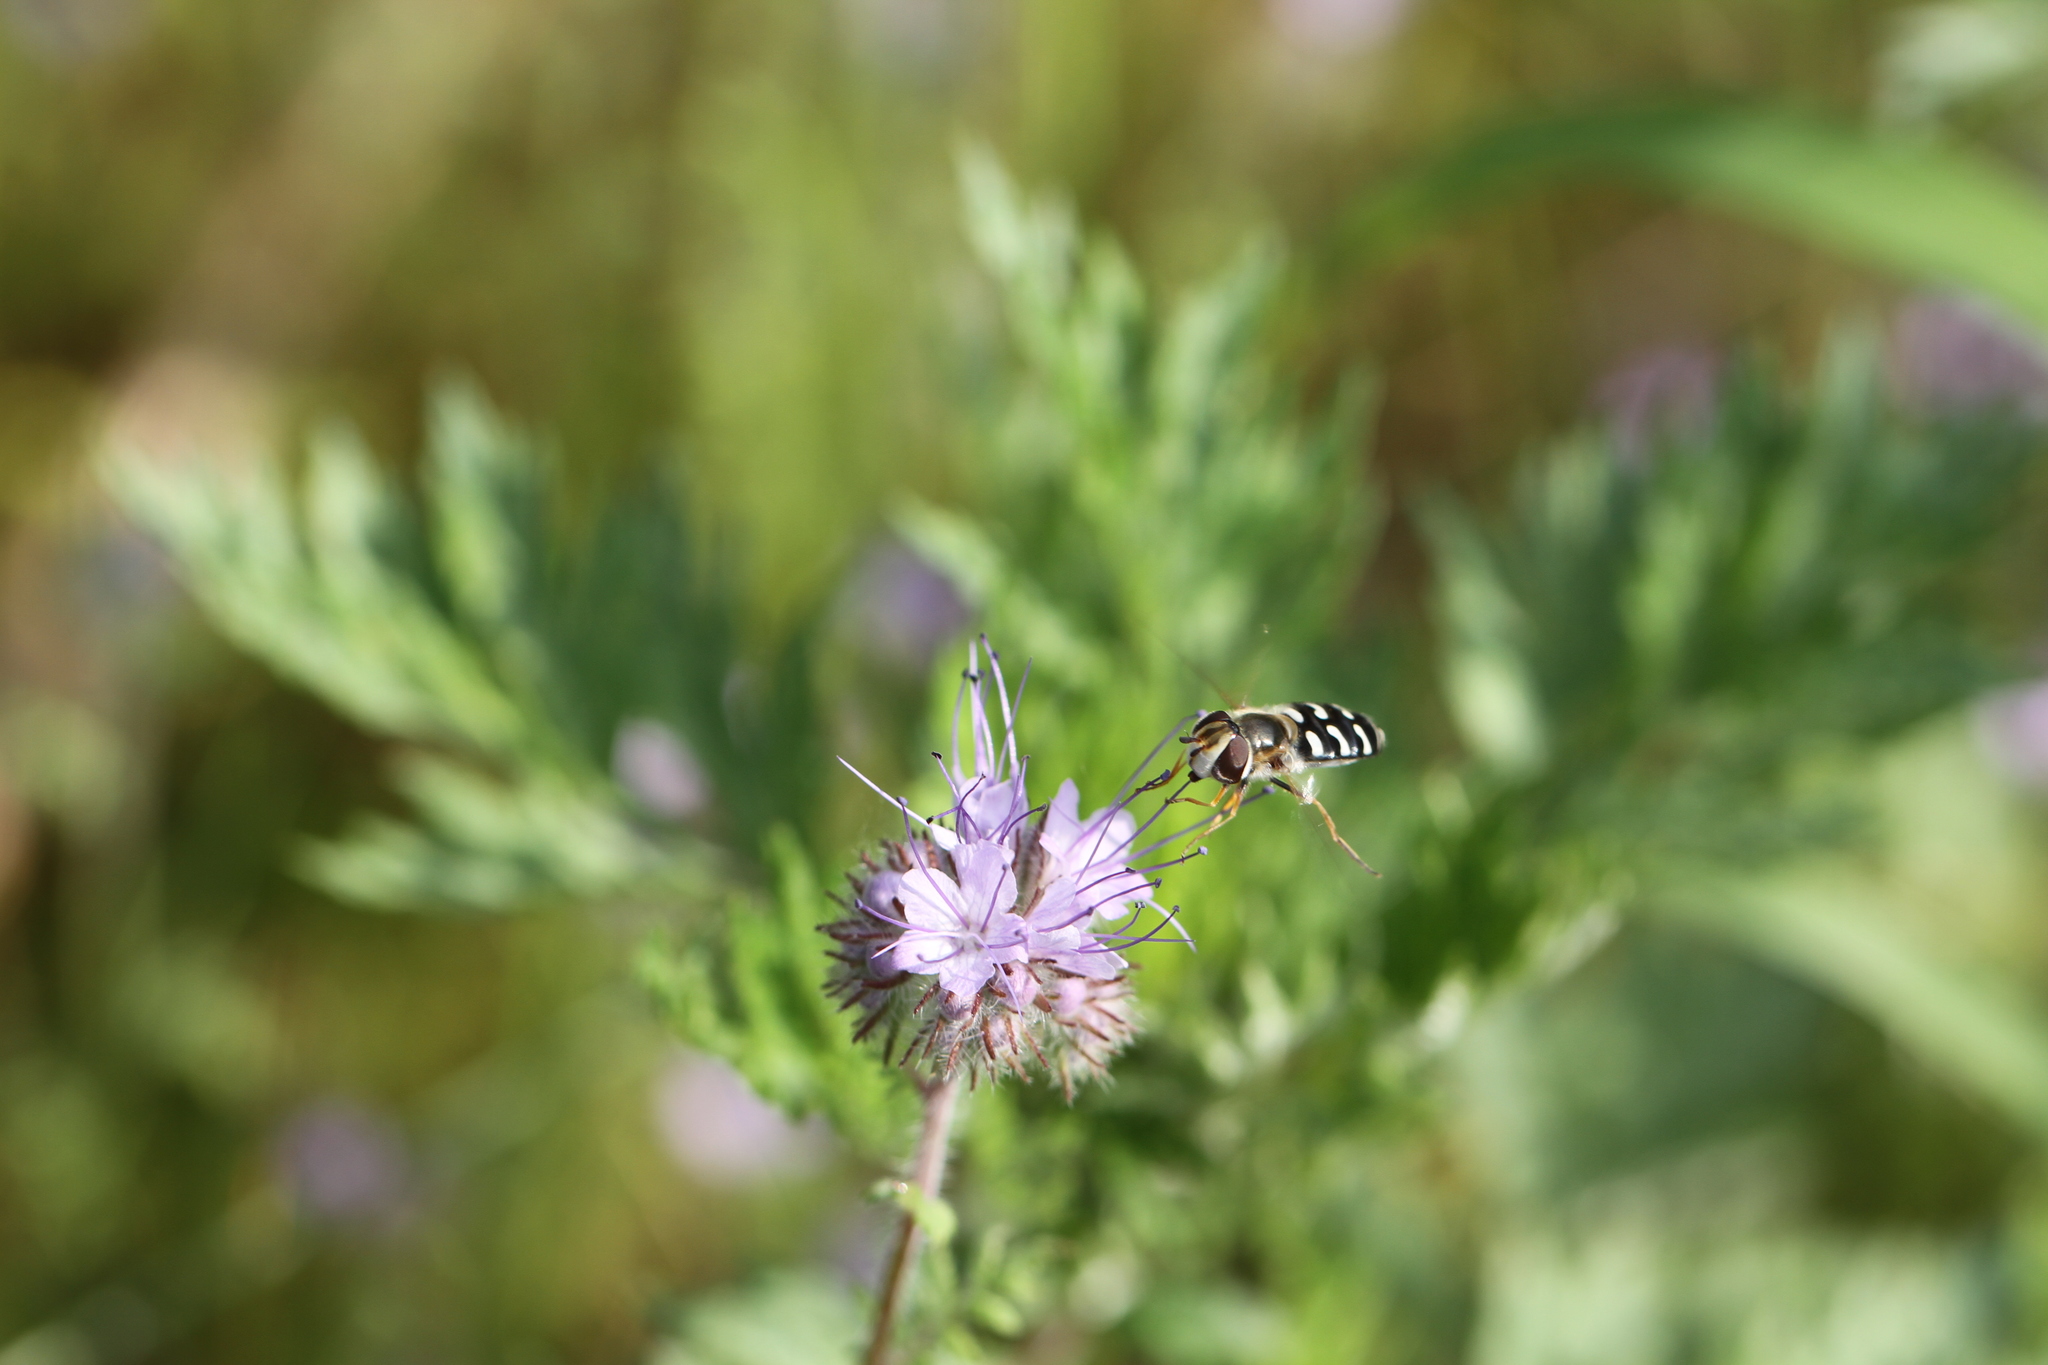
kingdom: Animalia
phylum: Arthropoda
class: Insecta
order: Diptera
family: Syrphidae
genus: Scaeva
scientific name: Scaeva pyrastri
